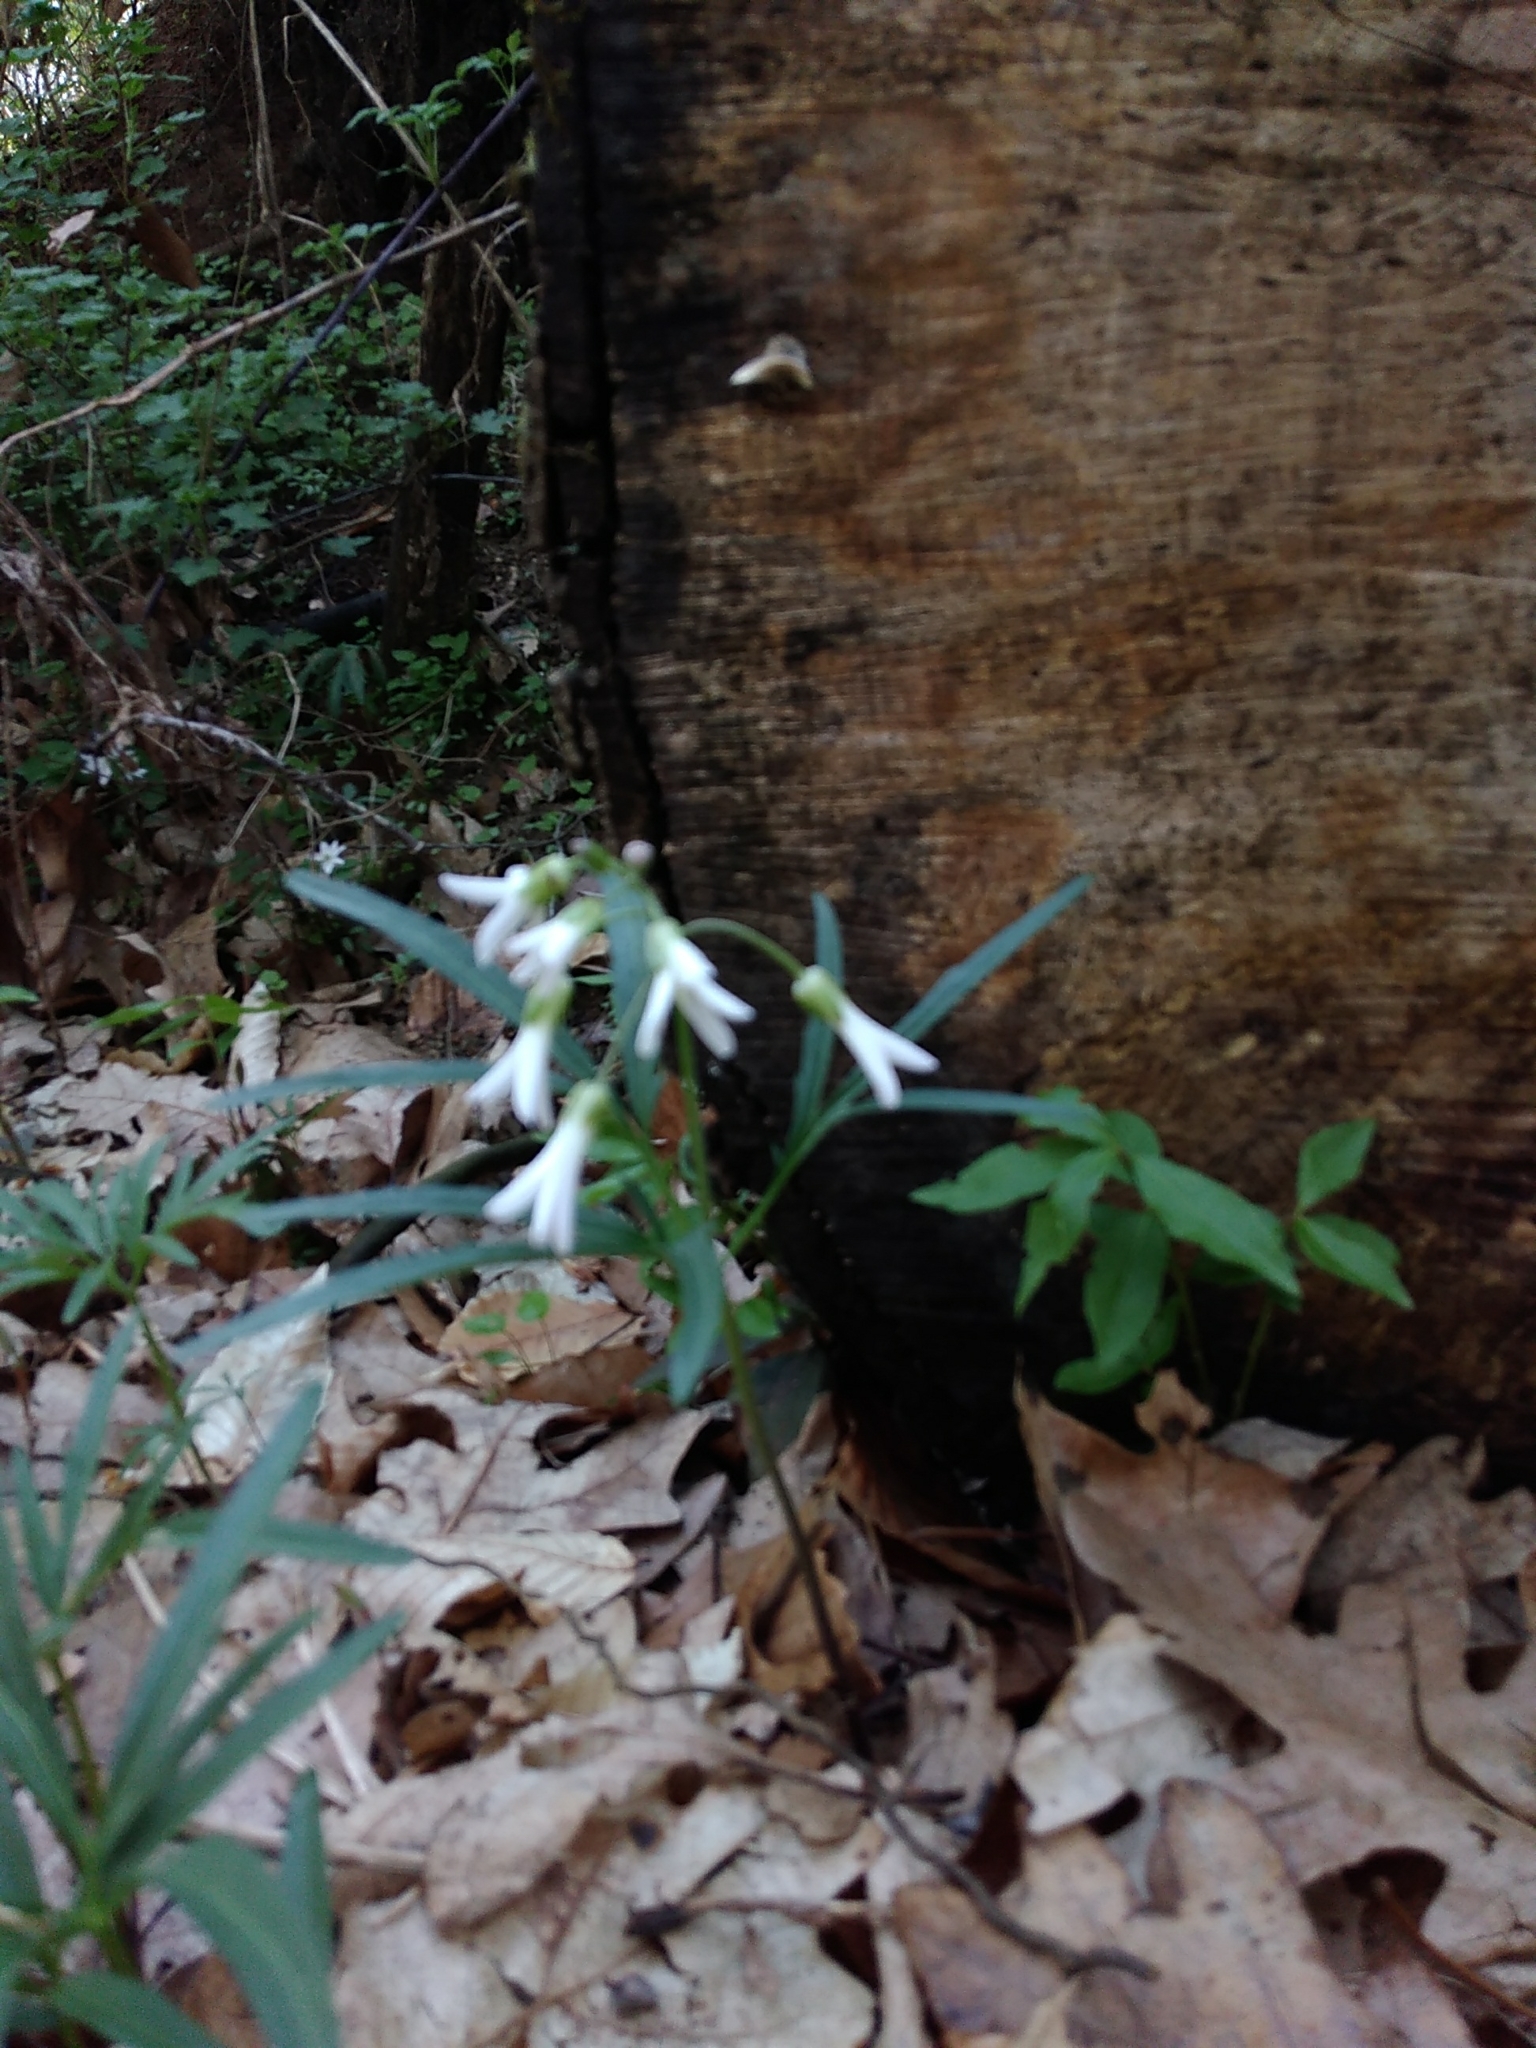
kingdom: Plantae
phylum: Tracheophyta
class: Magnoliopsida
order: Brassicales
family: Brassicaceae
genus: Cardamine
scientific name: Cardamine concatenata
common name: Cut-leaf toothcup
